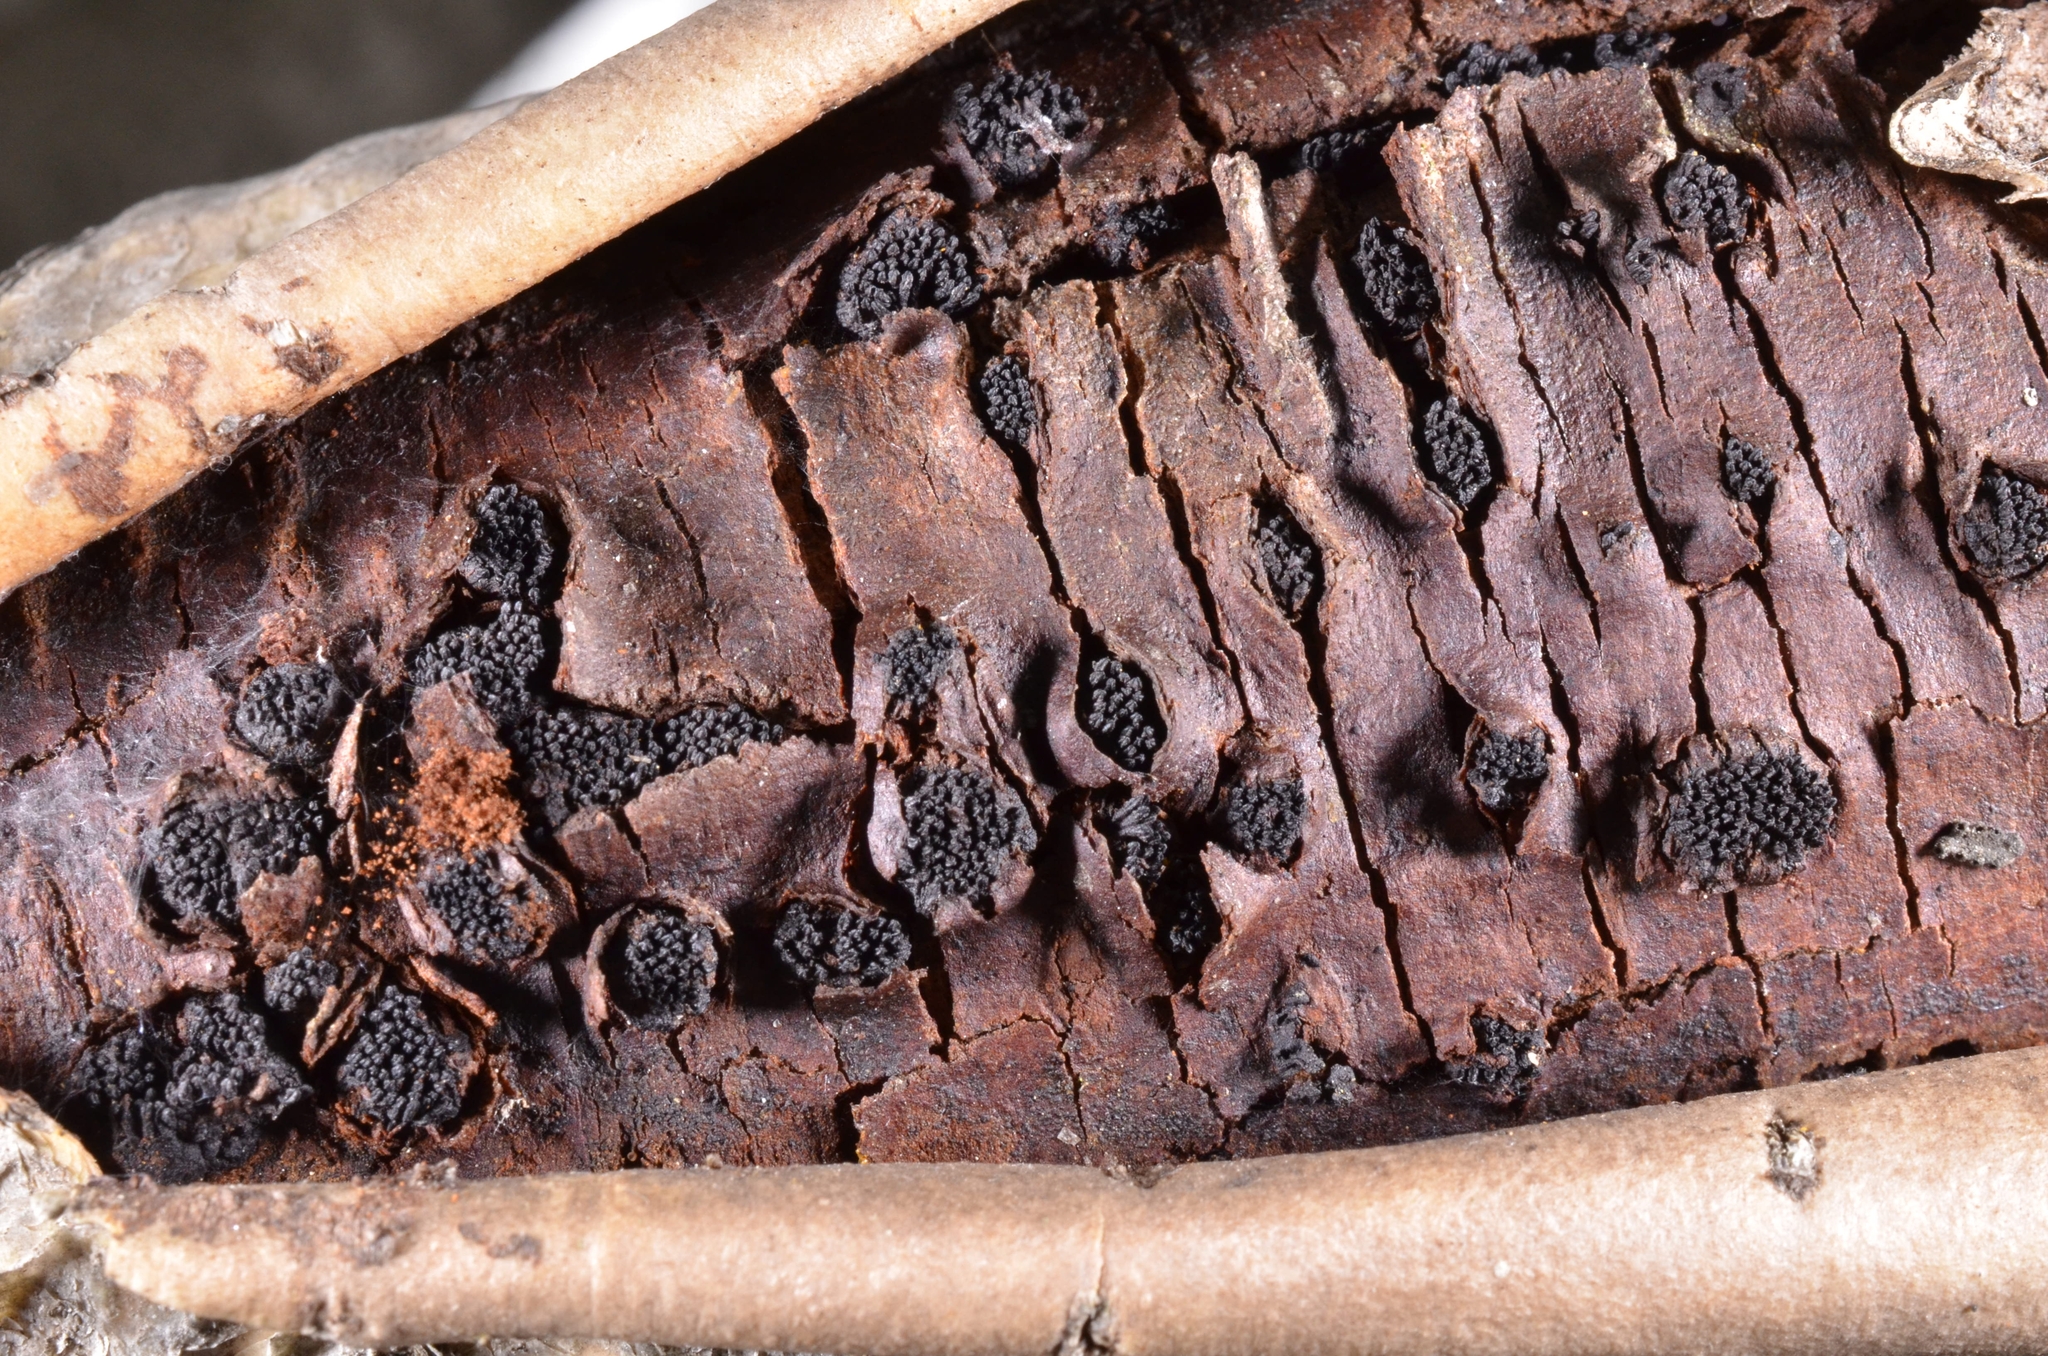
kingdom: Fungi
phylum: Ascomycota
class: Sordariomycetes
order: Xylariales
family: Diatrypaceae
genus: Eutypella
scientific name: Eutypella sorbi
